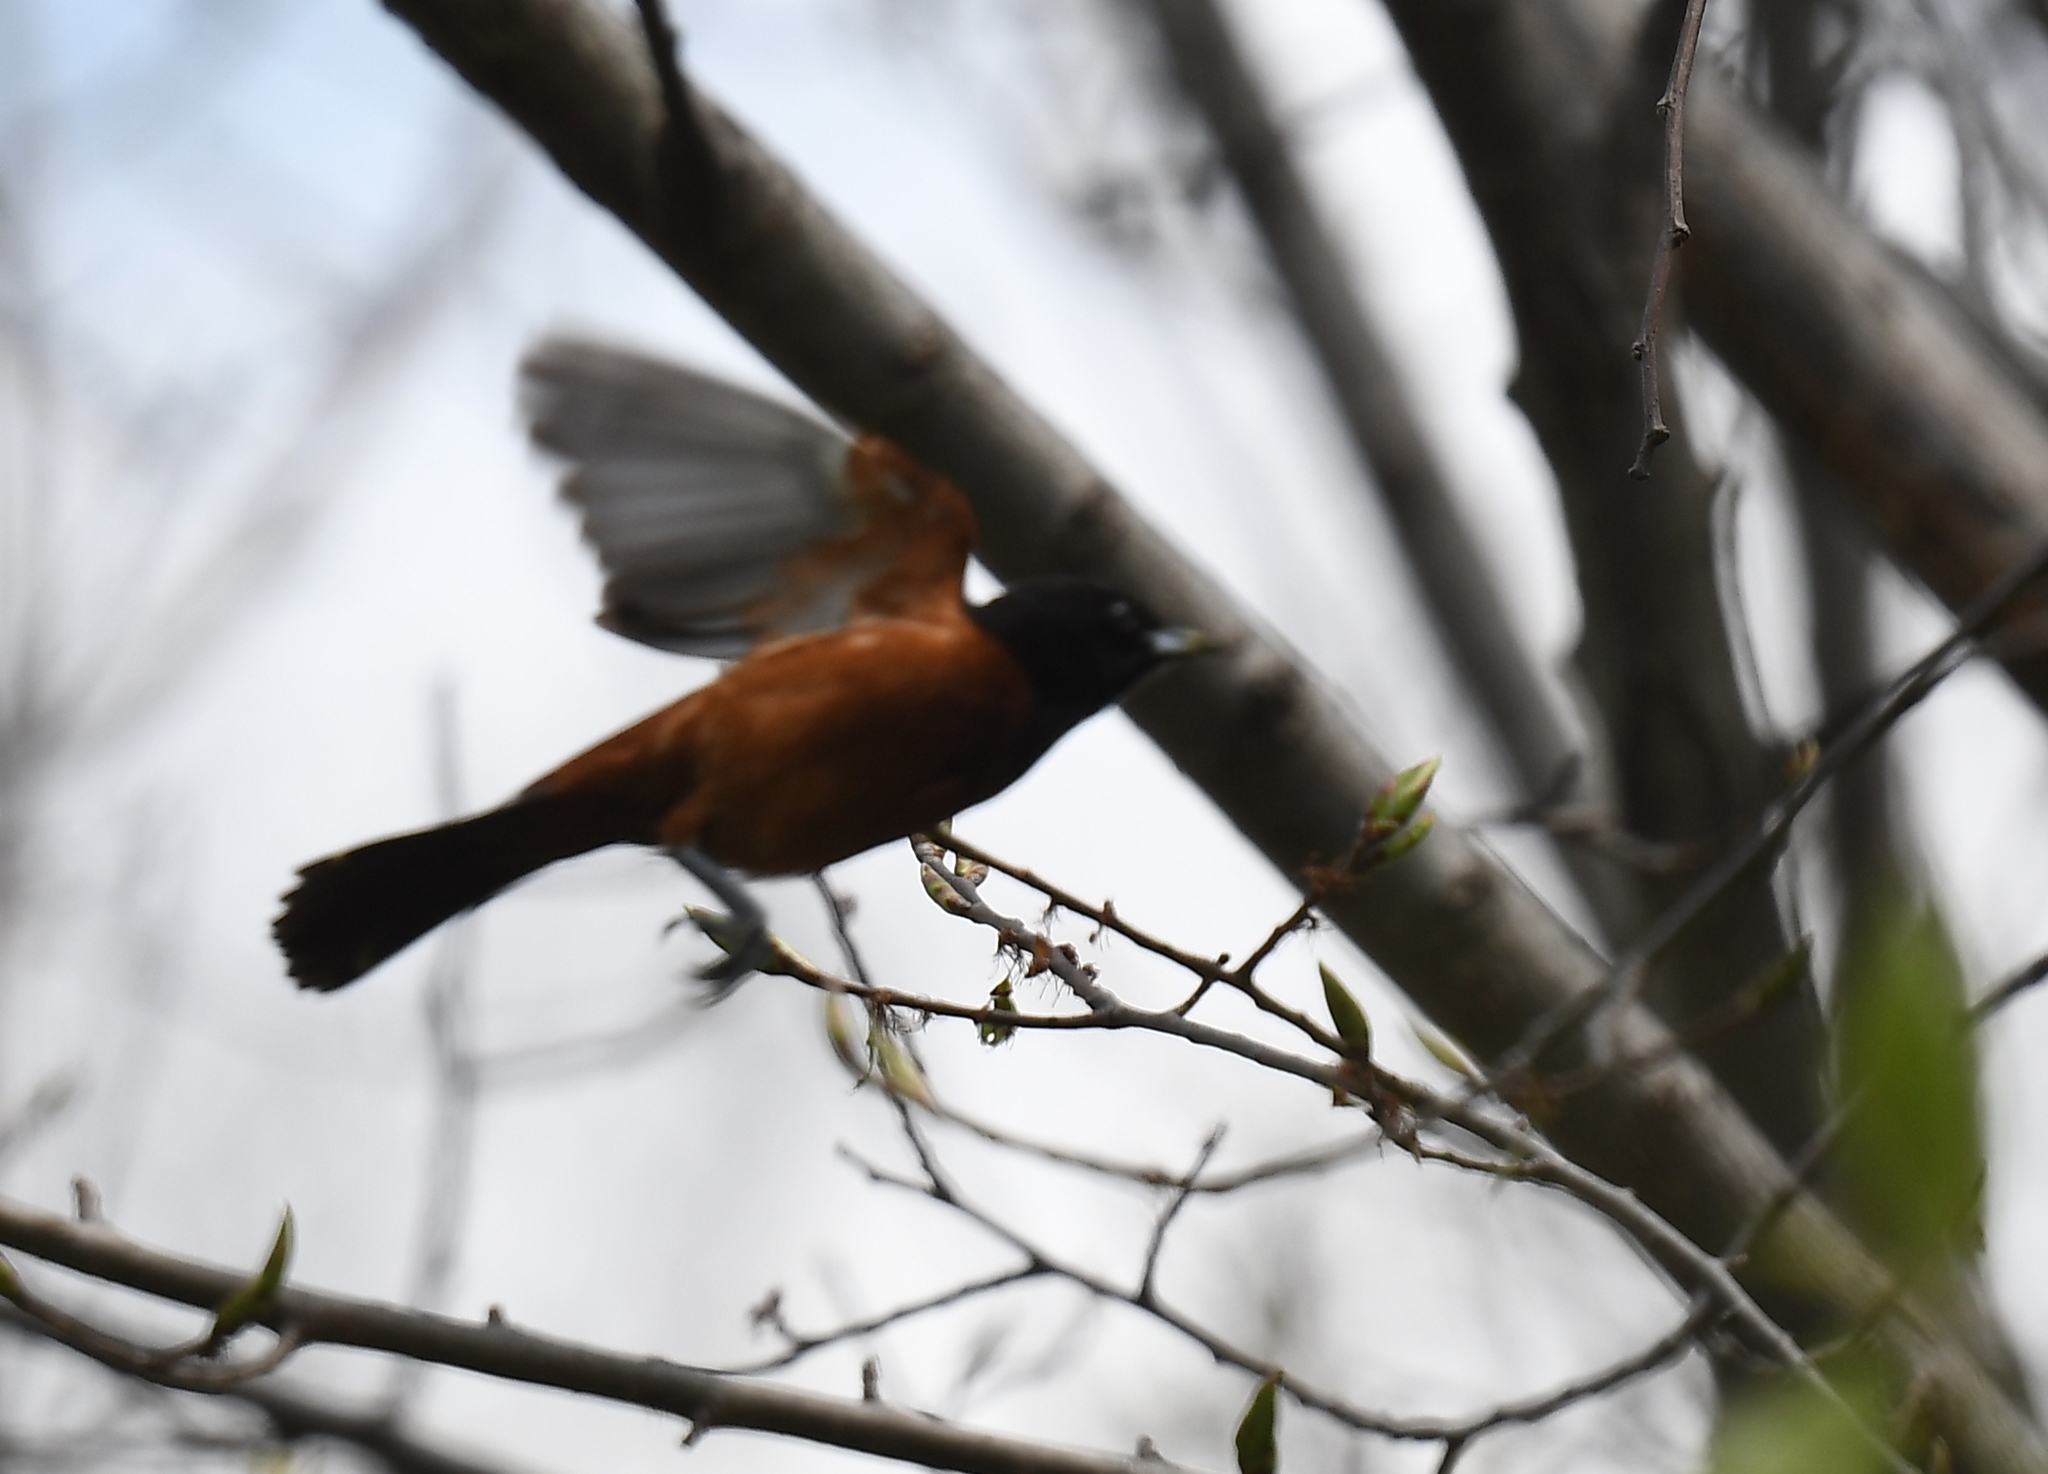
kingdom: Animalia
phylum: Chordata
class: Aves
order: Passeriformes
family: Icteridae
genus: Icterus
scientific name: Icterus spurius
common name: Orchard oriole
